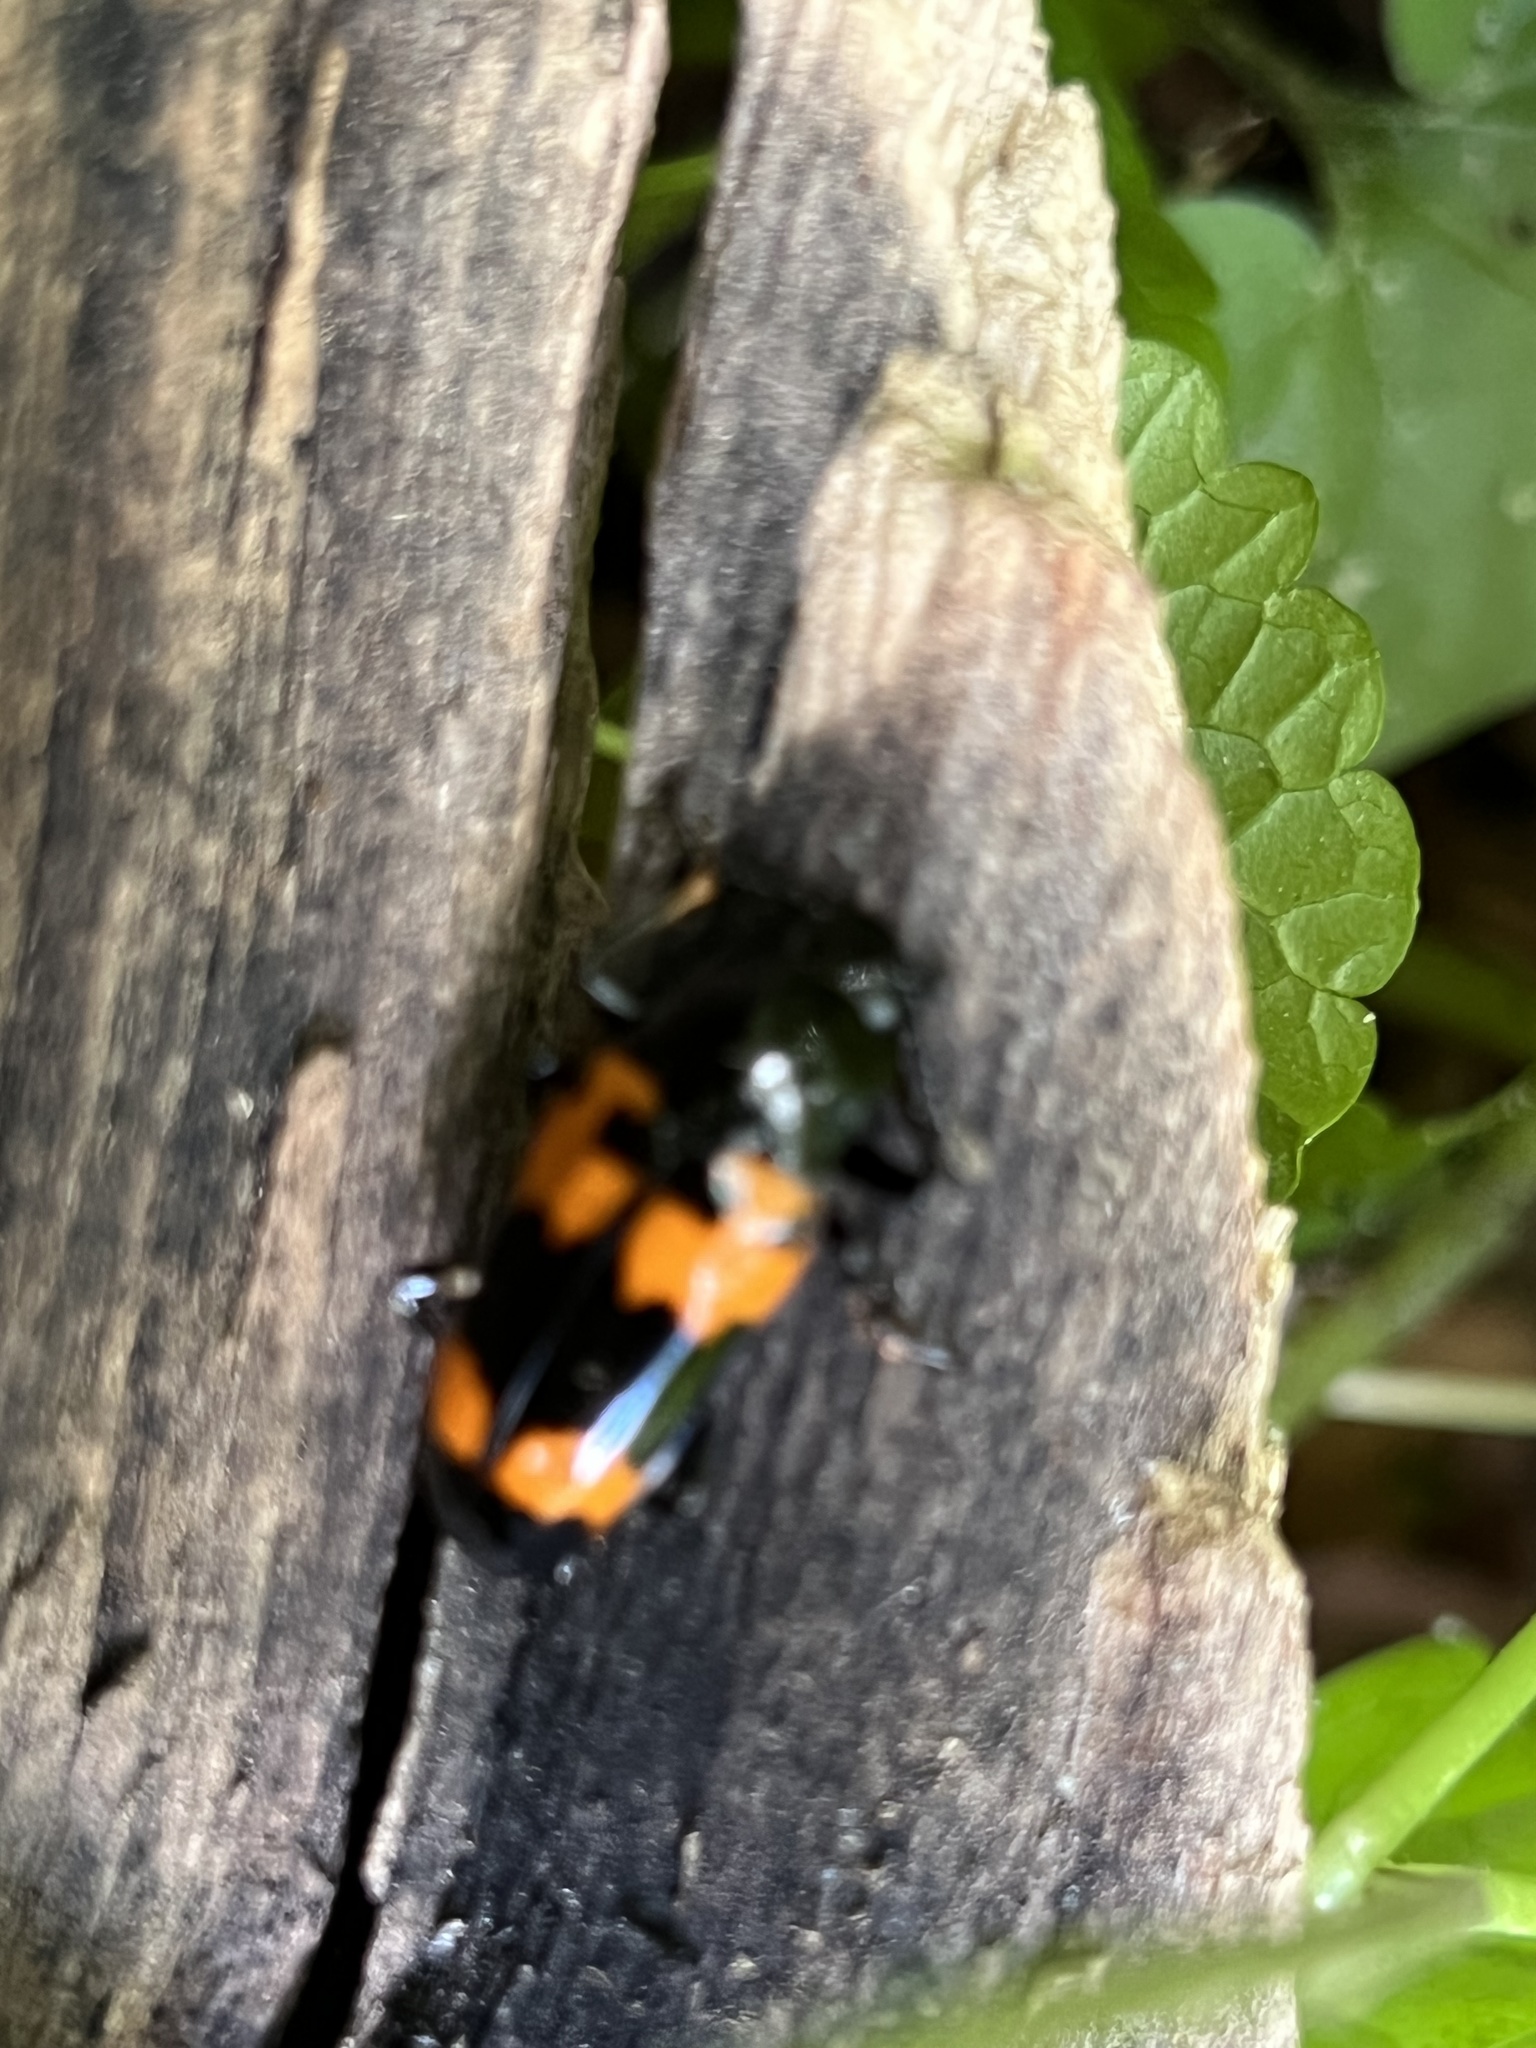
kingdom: Animalia
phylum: Arthropoda
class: Insecta
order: Coleoptera
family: Erotylidae
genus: Megalodacne
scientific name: Megalodacne heros
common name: Pleasing fungus beetle
